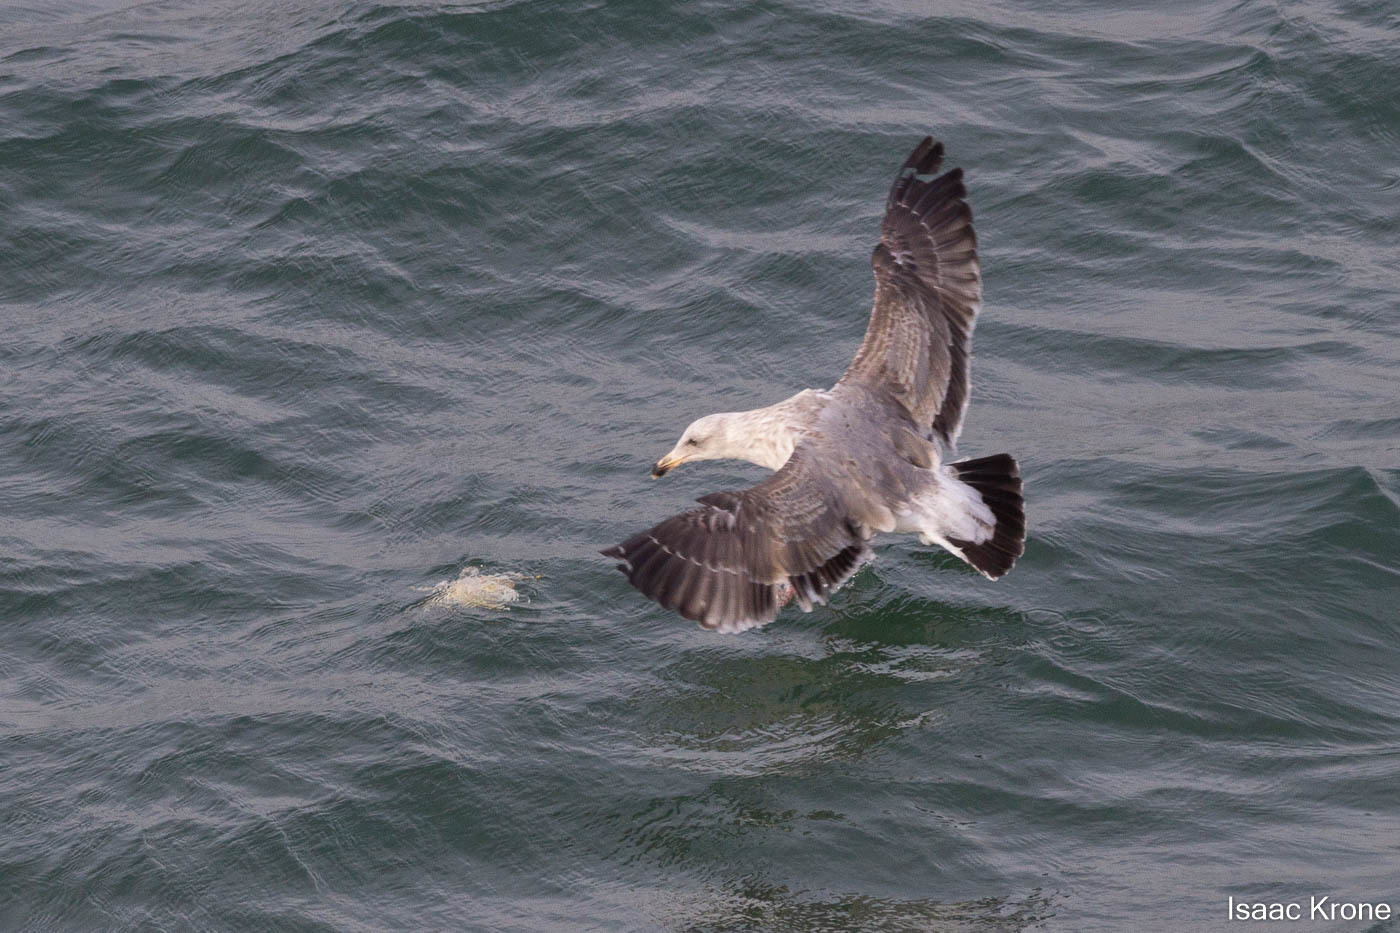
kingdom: Animalia
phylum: Chordata
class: Aves
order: Charadriiformes
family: Laridae
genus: Larus
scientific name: Larus occidentalis
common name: Western gull
